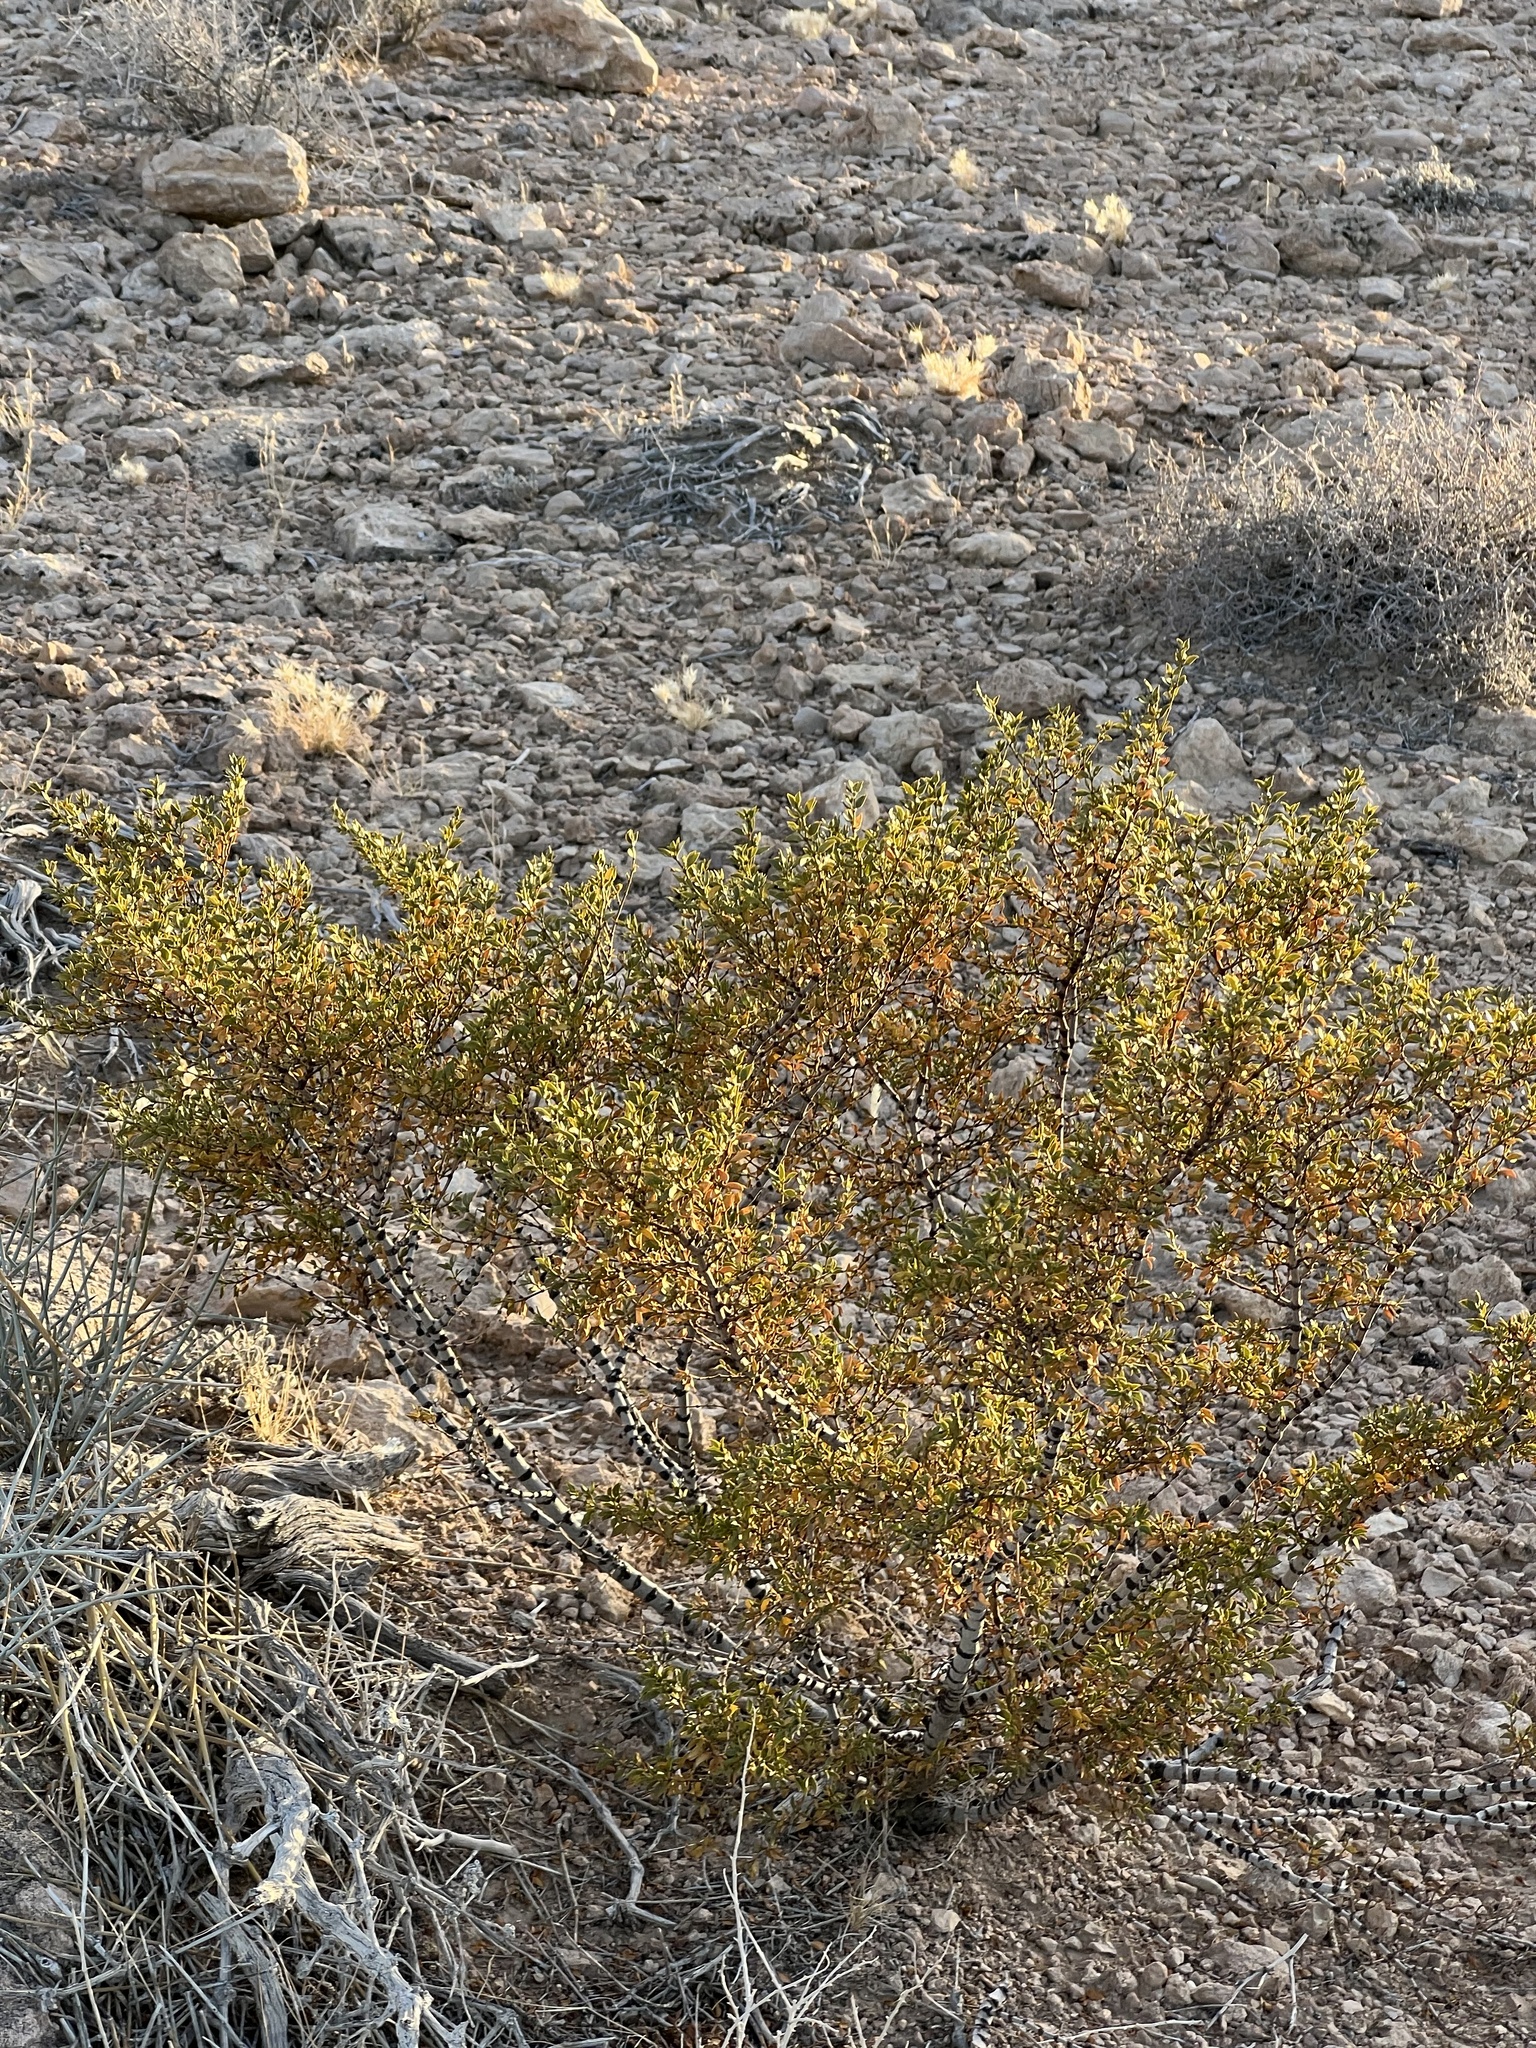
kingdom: Plantae
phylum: Tracheophyta
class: Magnoliopsida
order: Zygophyllales
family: Zygophyllaceae
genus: Larrea
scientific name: Larrea tridentata
